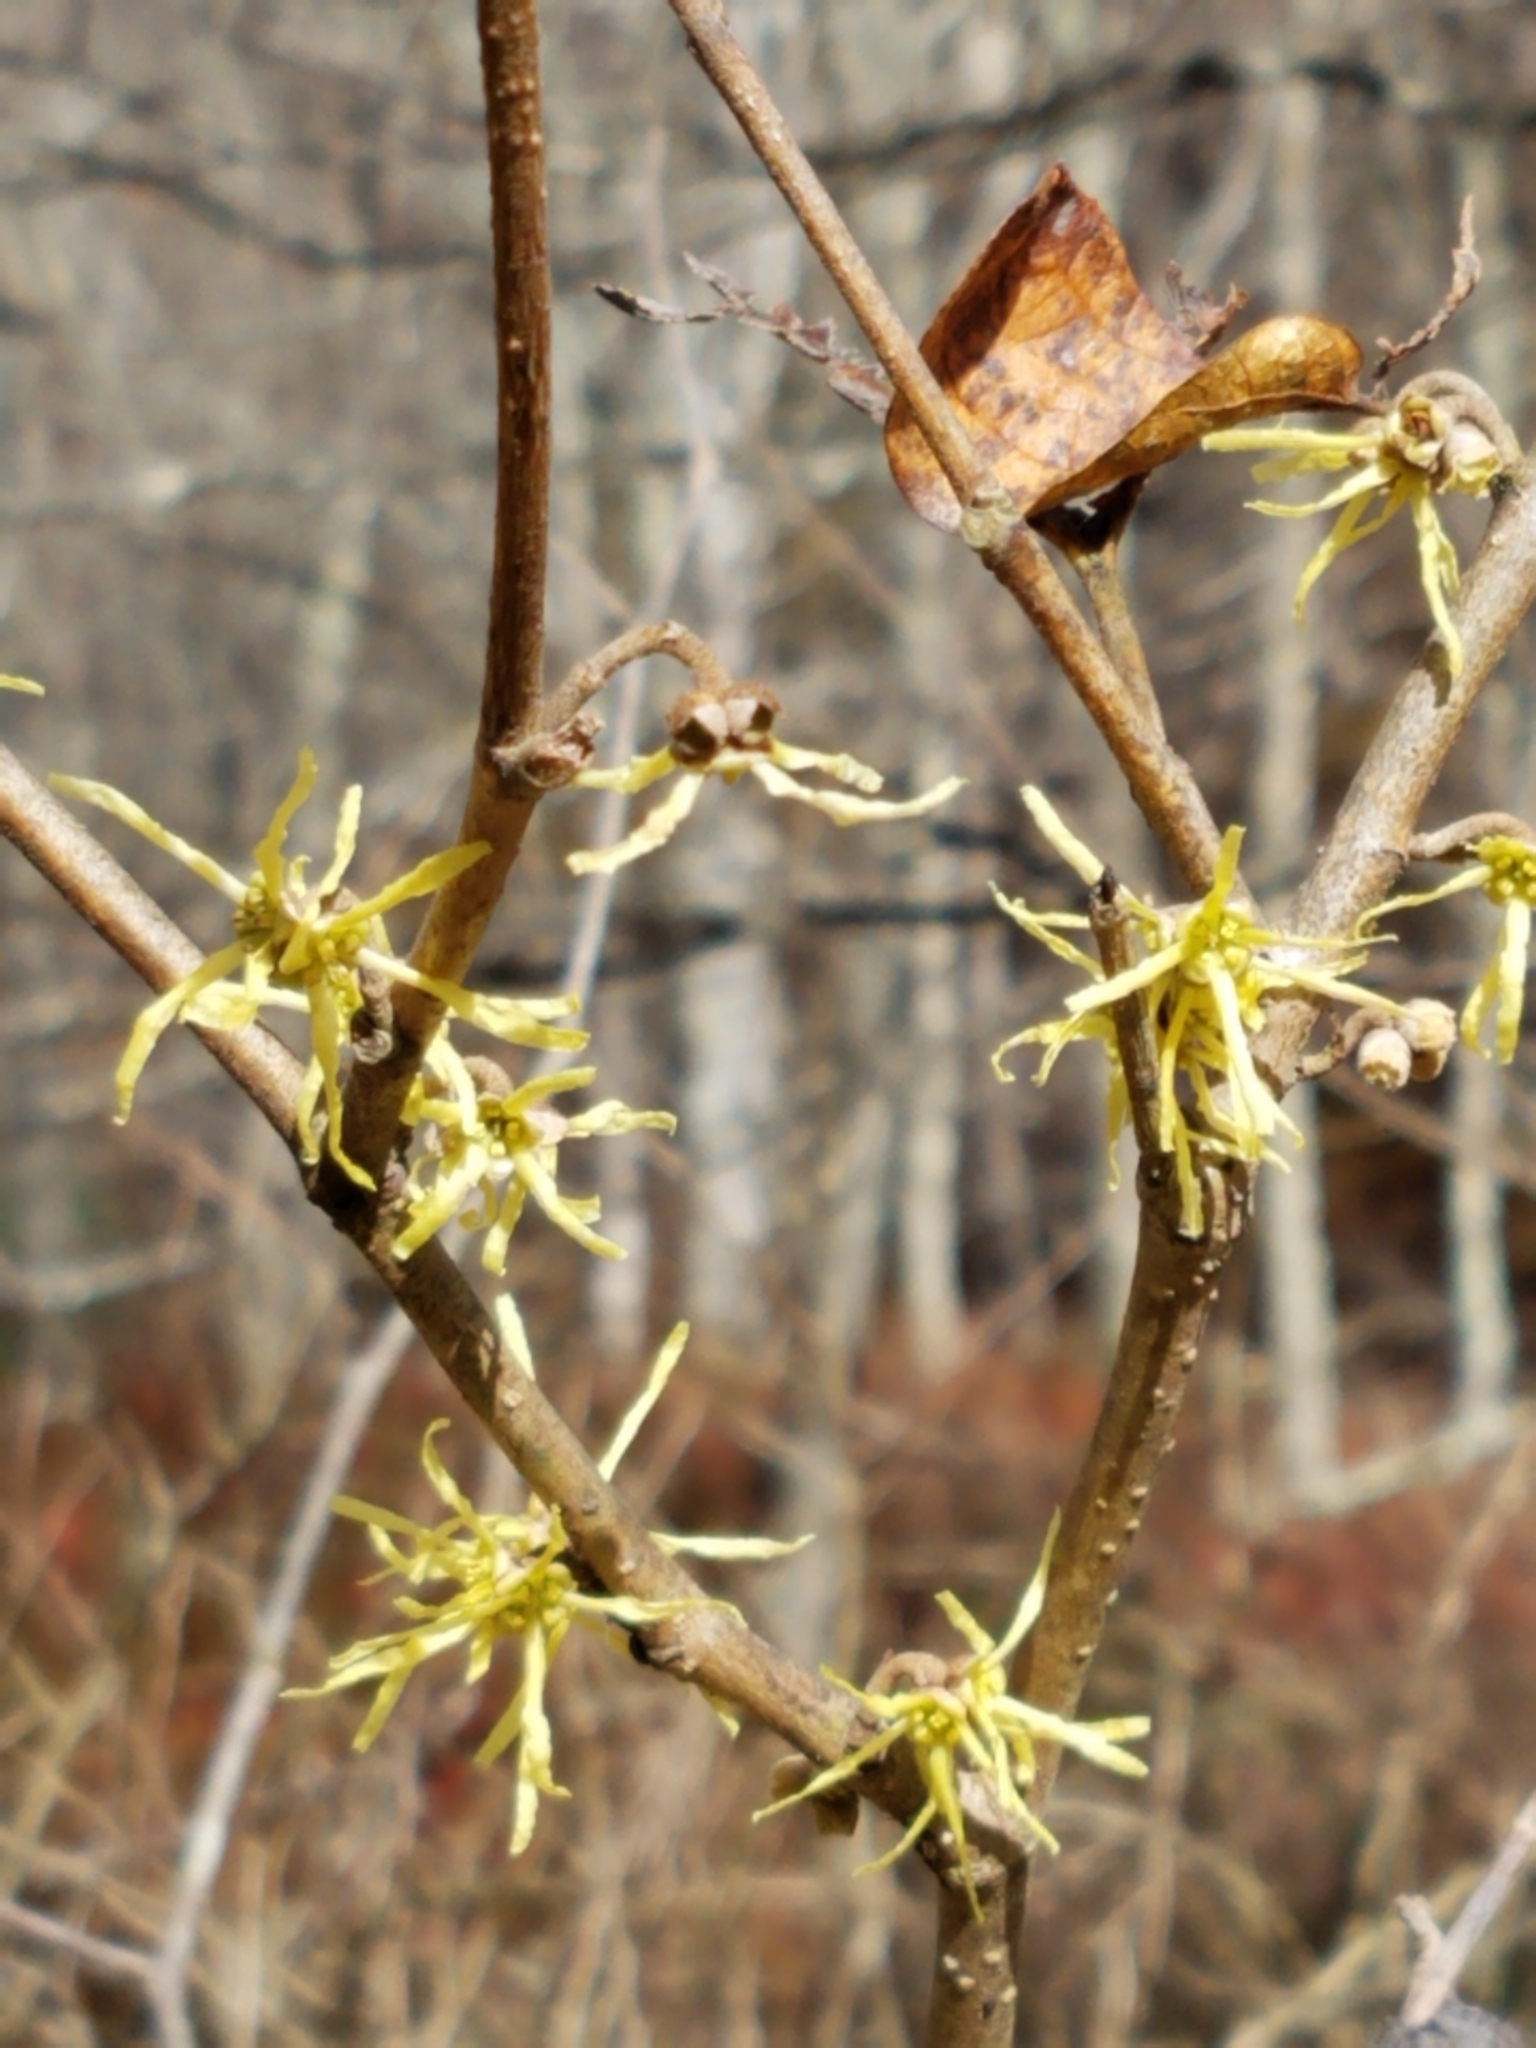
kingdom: Plantae
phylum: Tracheophyta
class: Magnoliopsida
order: Saxifragales
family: Hamamelidaceae
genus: Hamamelis
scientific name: Hamamelis virginiana
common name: Witch-hazel
